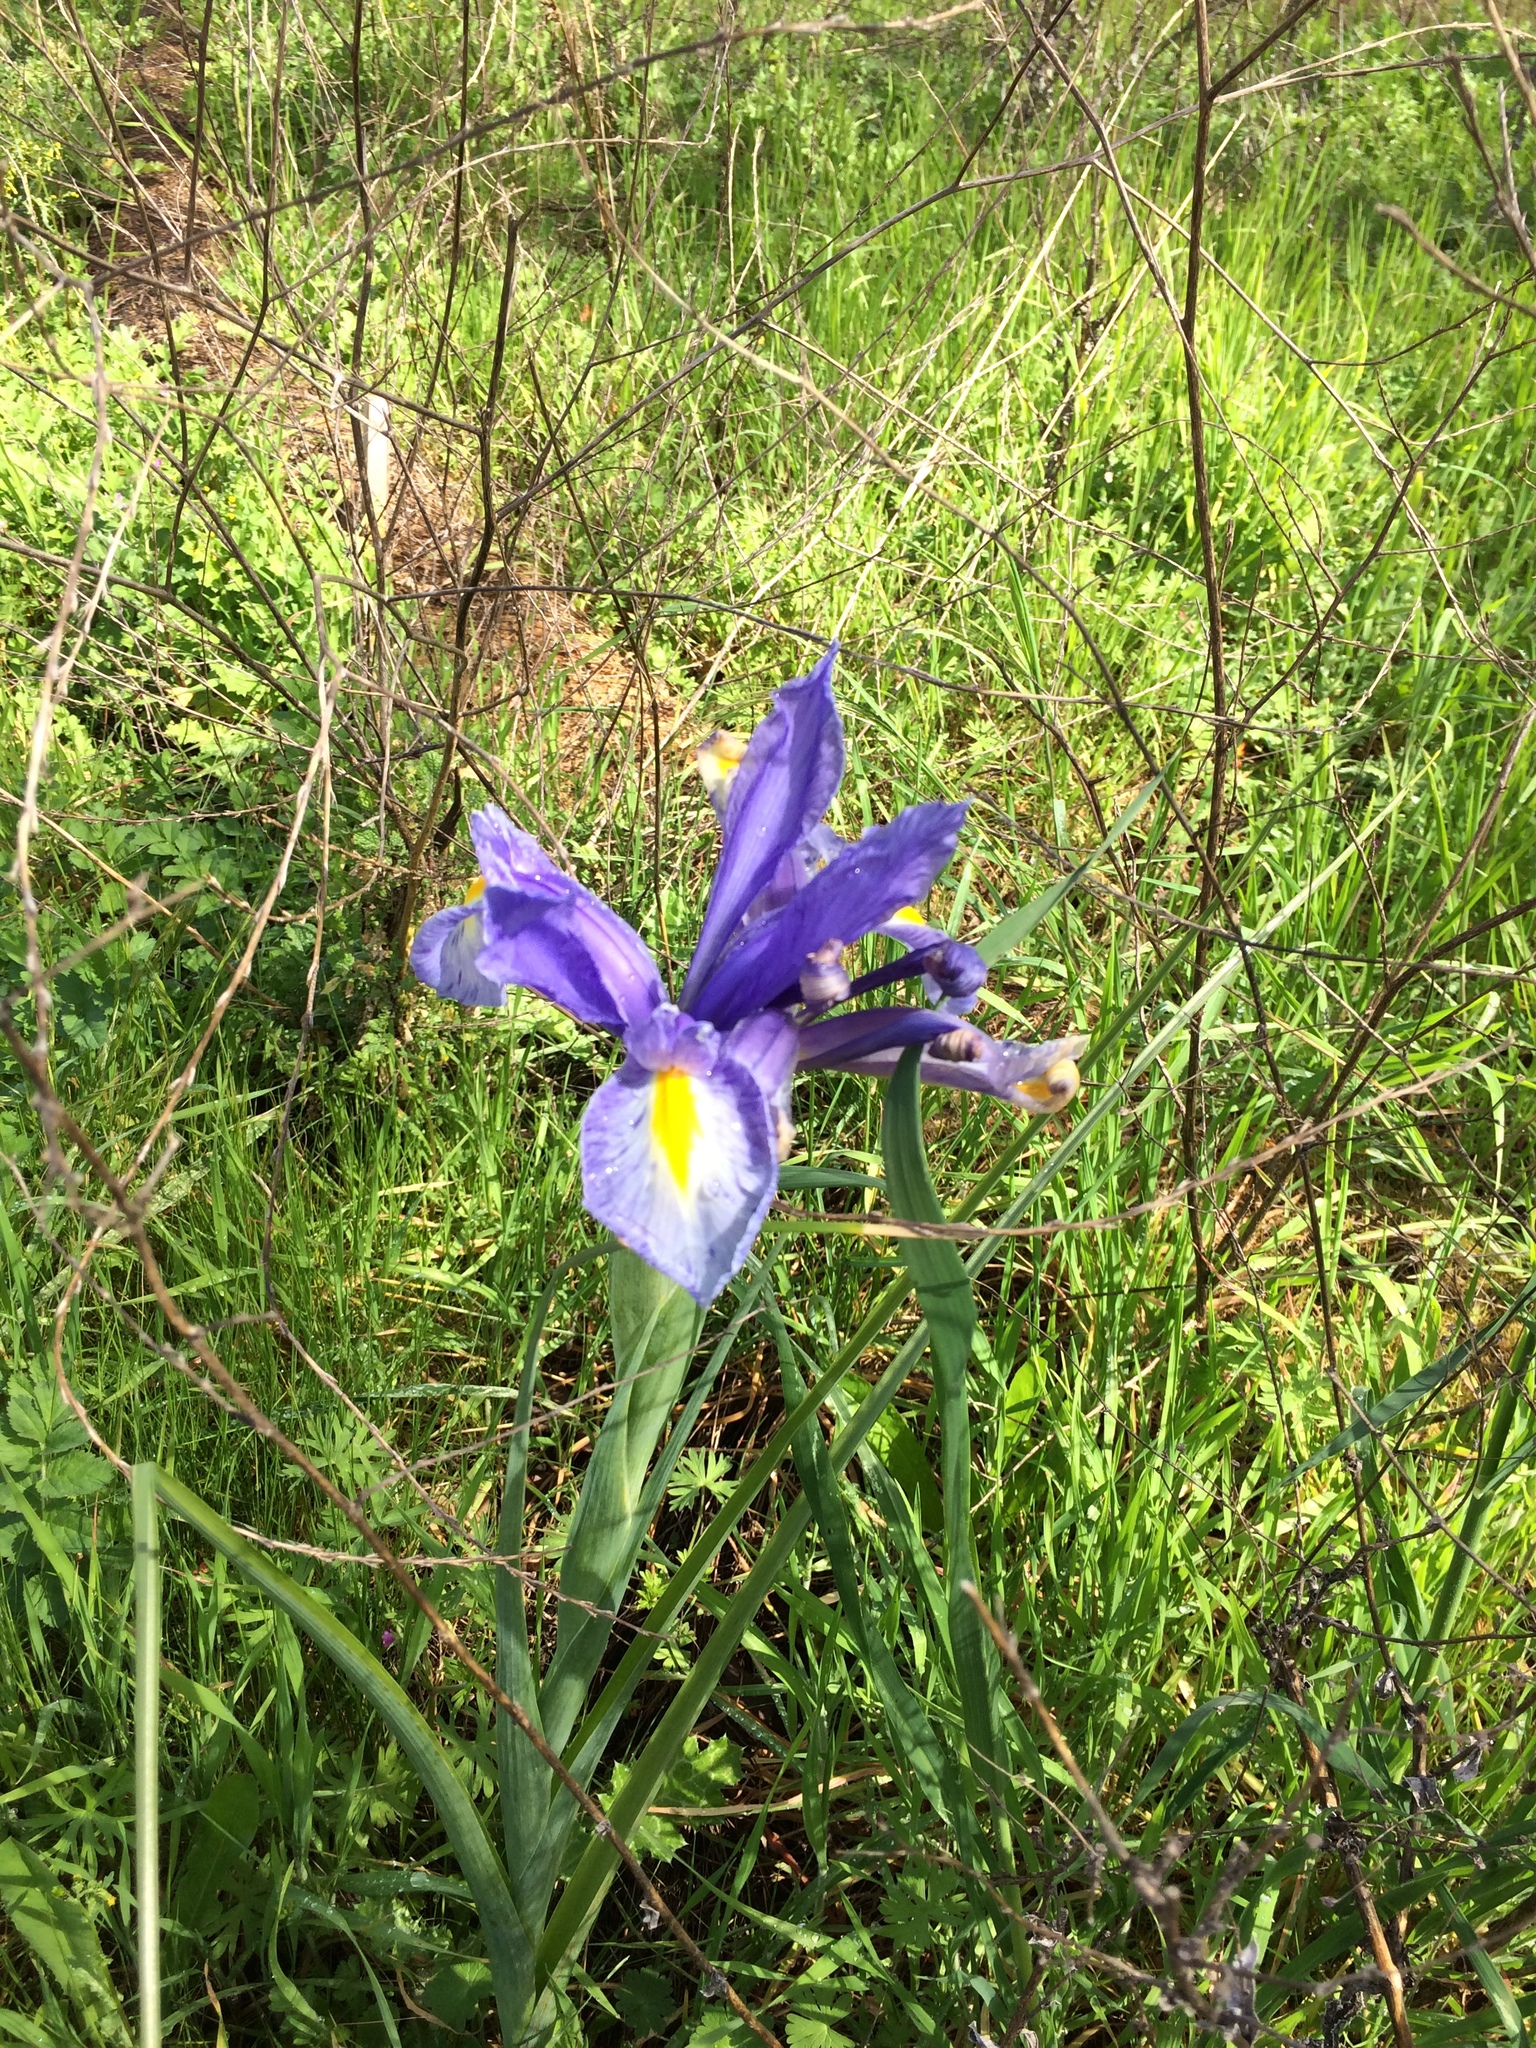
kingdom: Plantae
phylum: Tracheophyta
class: Liliopsida
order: Asparagales
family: Iridaceae
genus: Iris
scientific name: Iris hollandica
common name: Dutch iris
